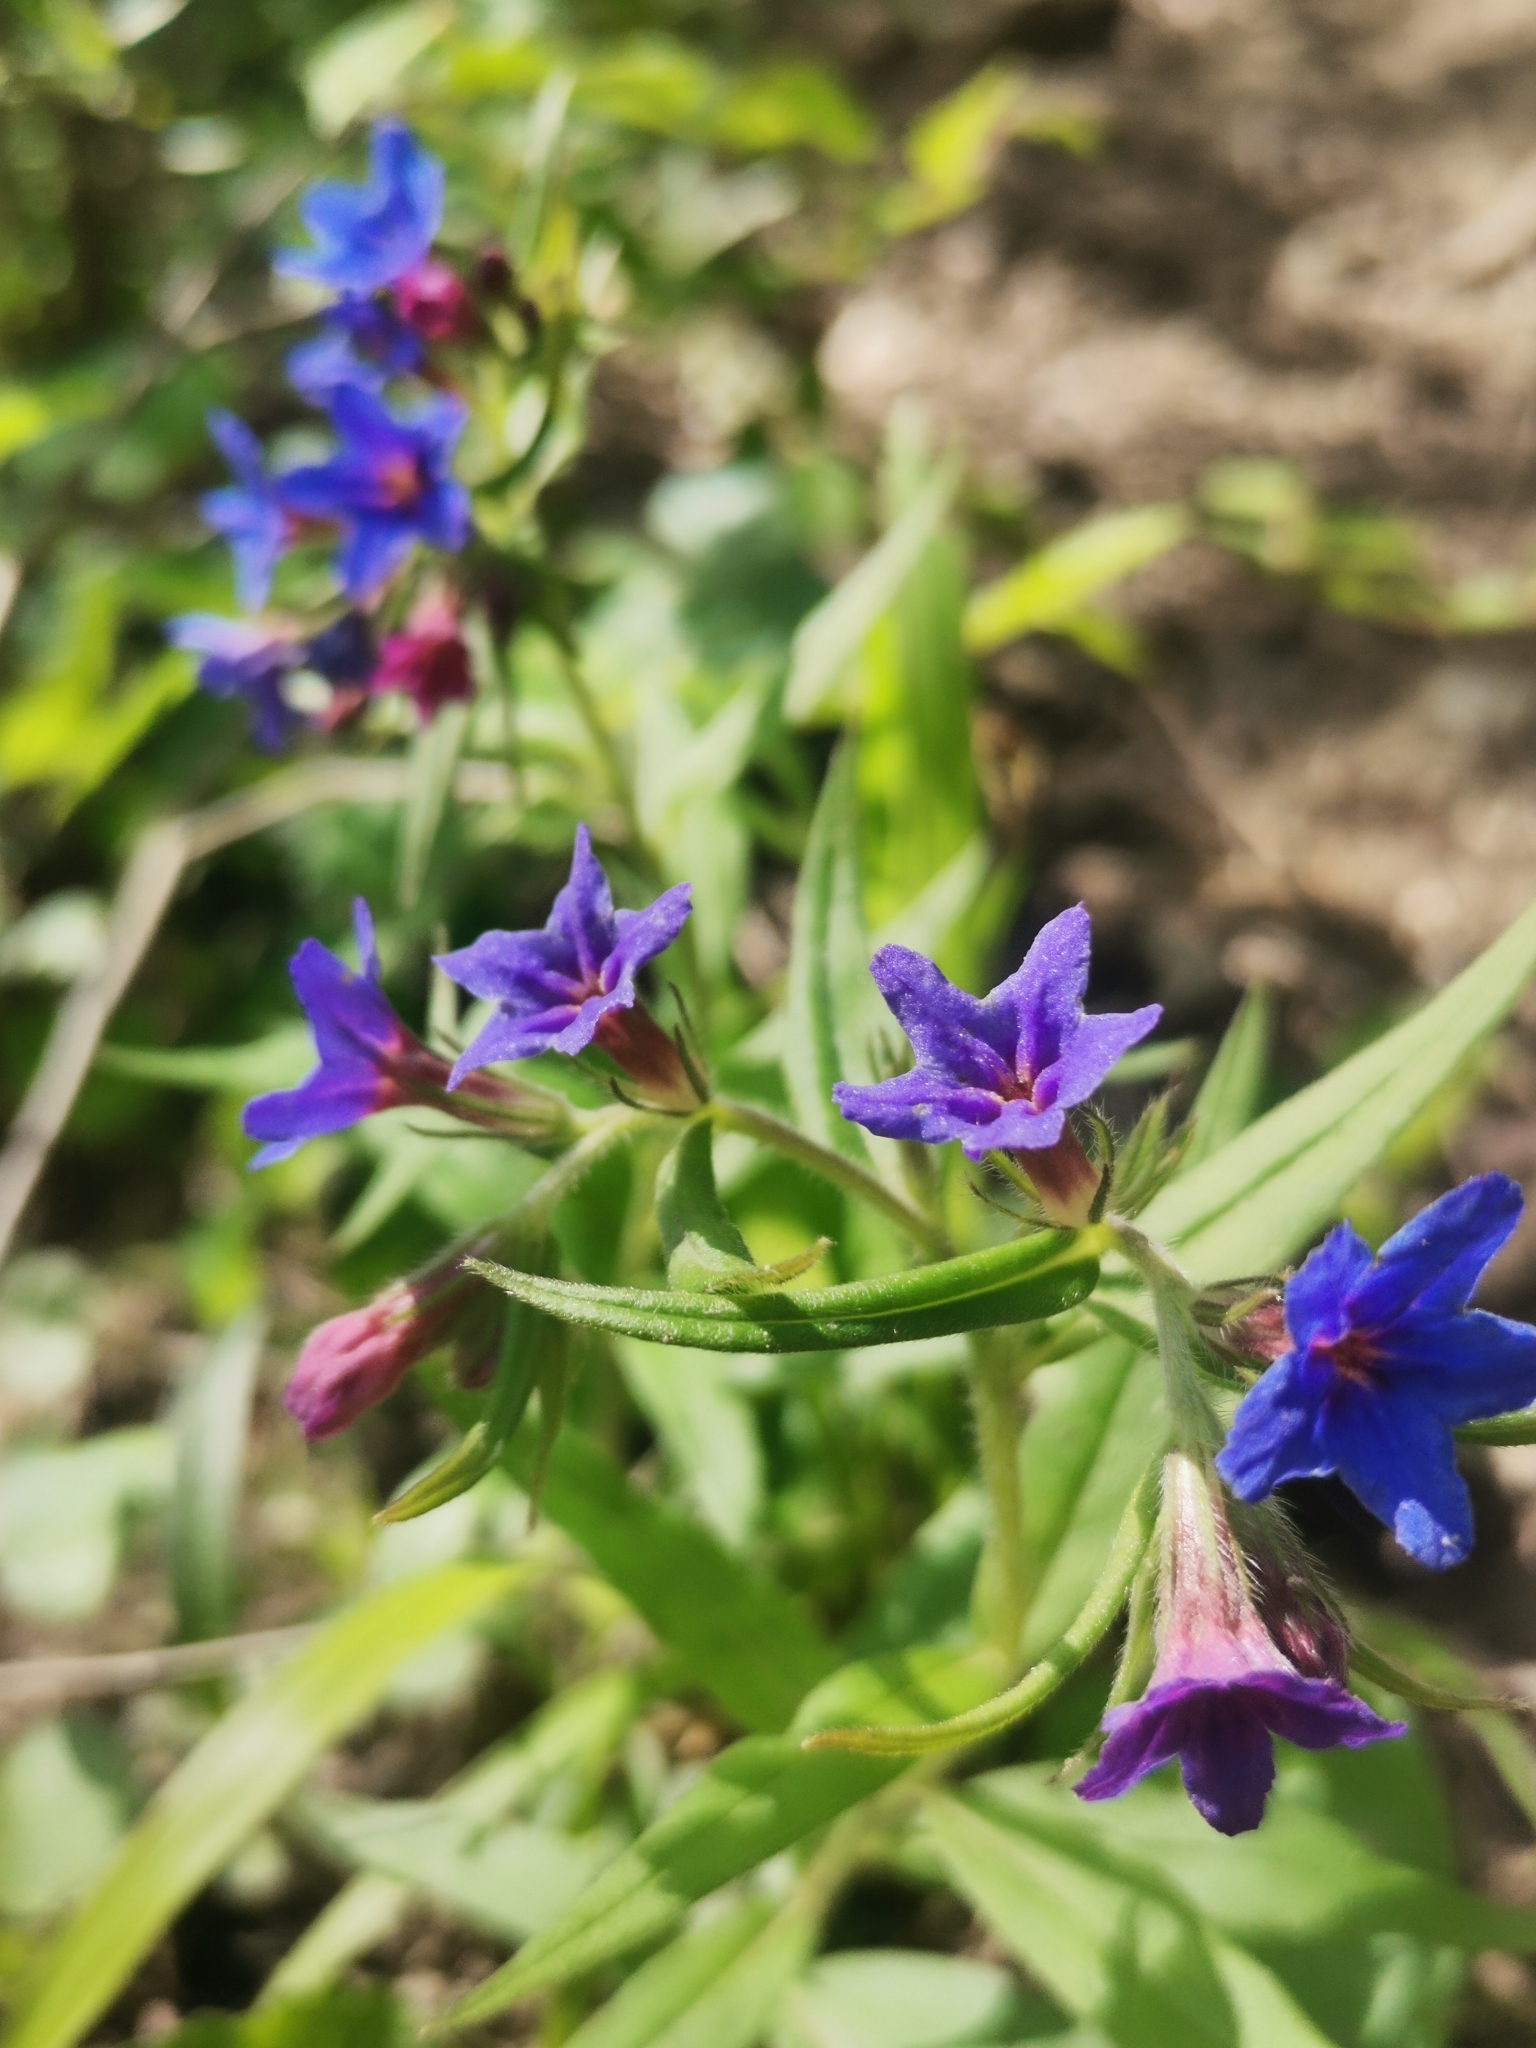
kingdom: Plantae
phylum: Tracheophyta
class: Magnoliopsida
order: Boraginales
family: Boraginaceae
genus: Aegonychon
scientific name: Aegonychon purpurocaeruleum
